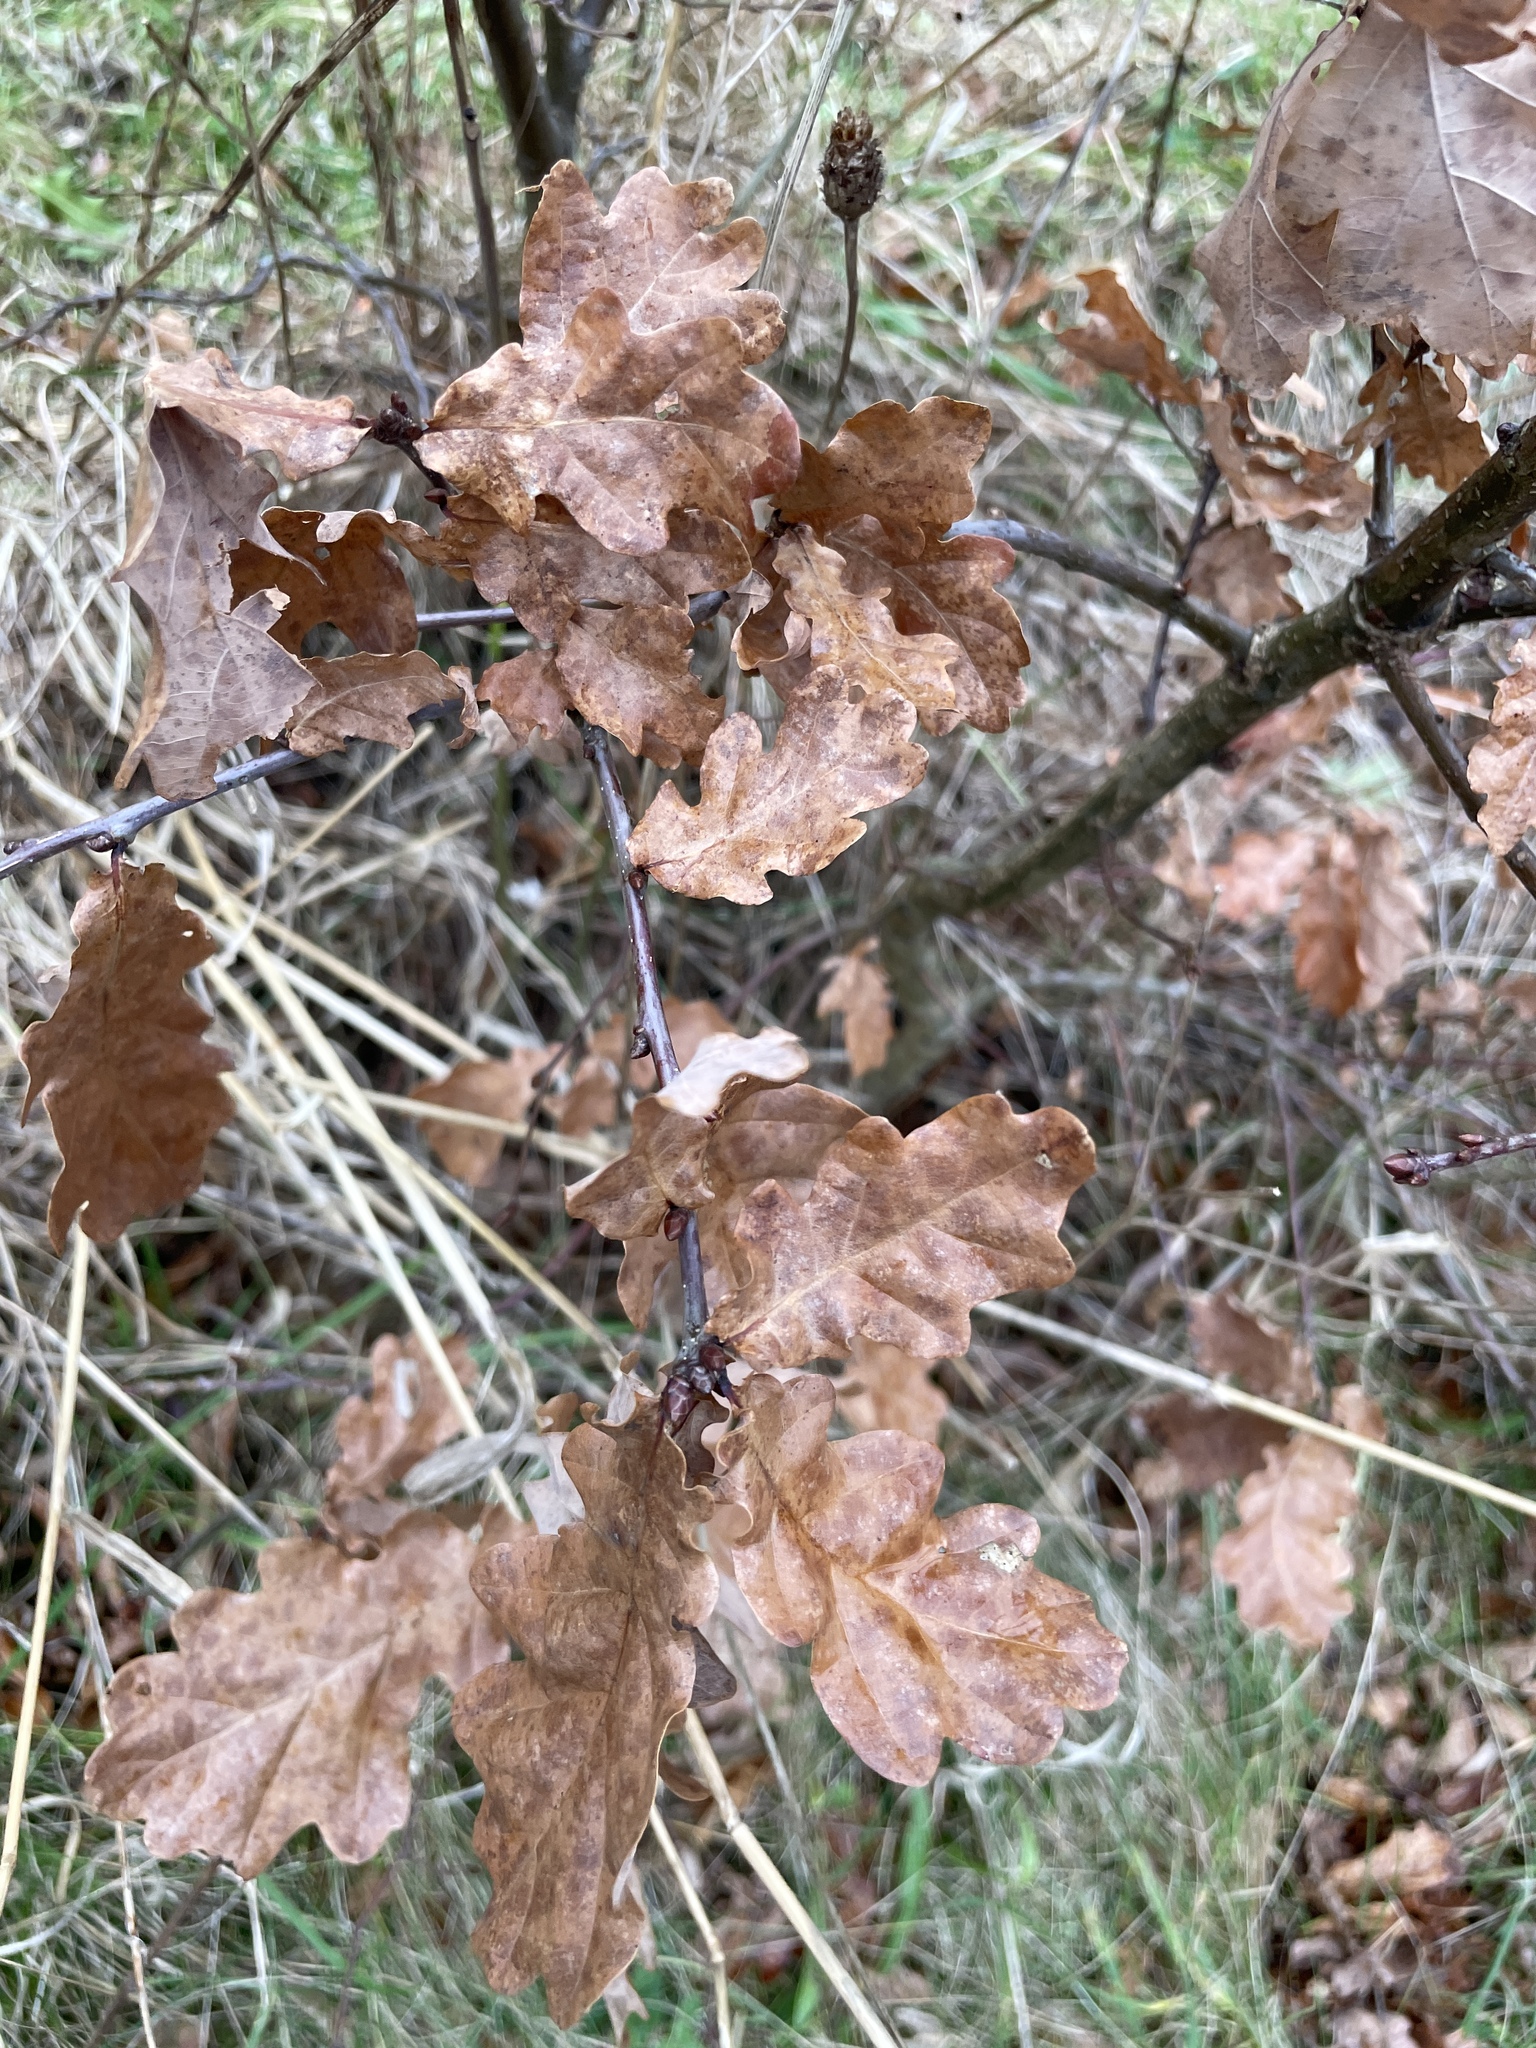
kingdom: Plantae
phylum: Tracheophyta
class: Magnoliopsida
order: Fagales
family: Fagaceae
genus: Quercus
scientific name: Quercus robur
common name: Pedunculate oak
